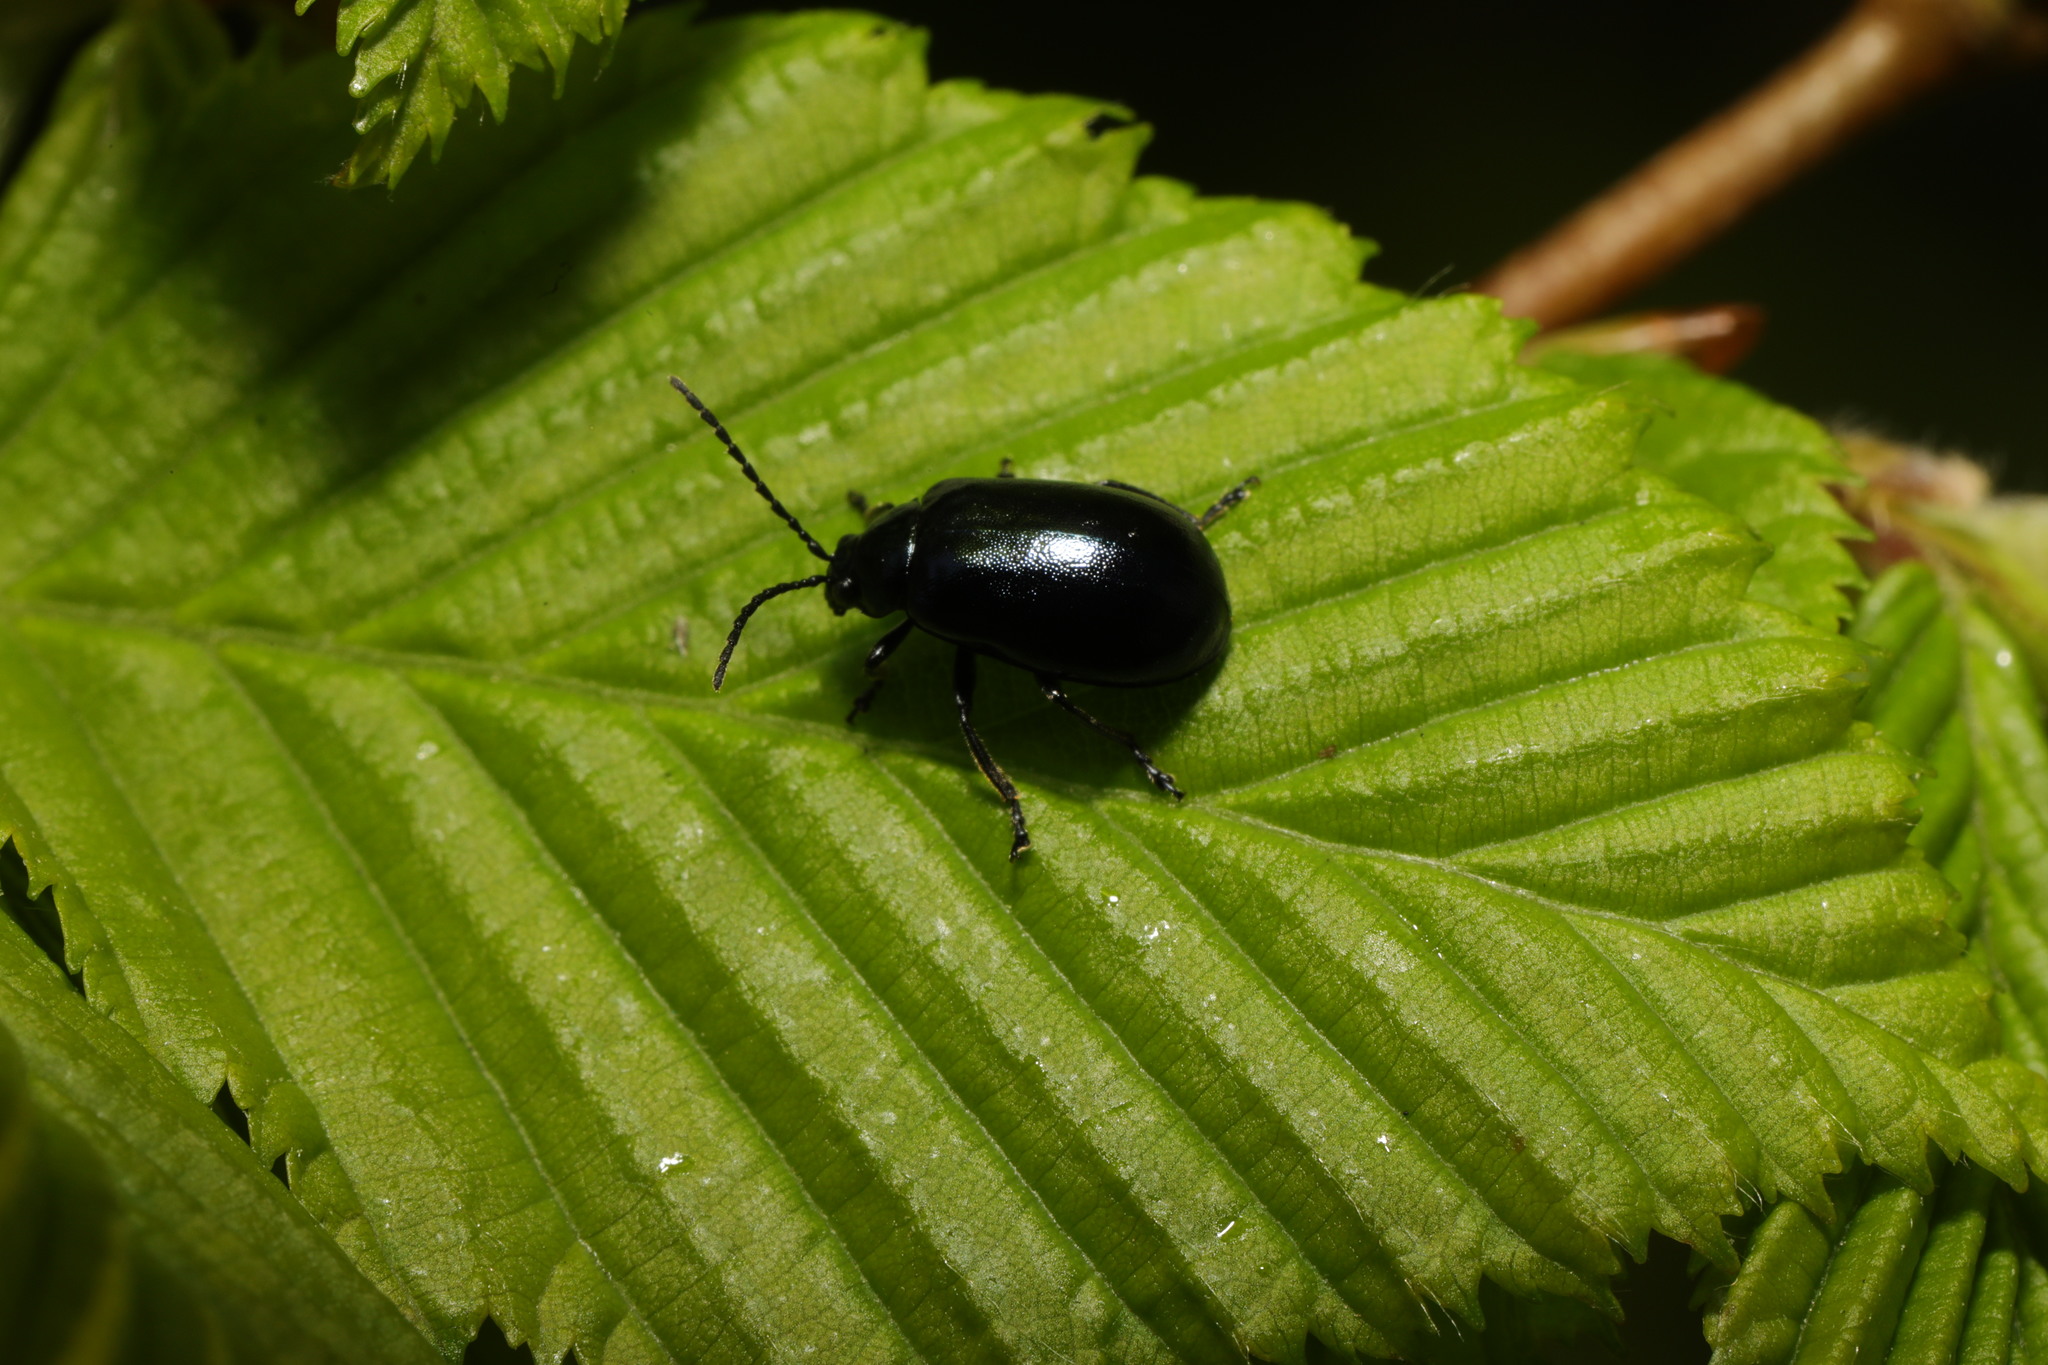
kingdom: Animalia
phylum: Arthropoda
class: Insecta
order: Coleoptera
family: Chrysomelidae
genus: Agelastica
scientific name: Agelastica alni
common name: Alder leaf beetle
